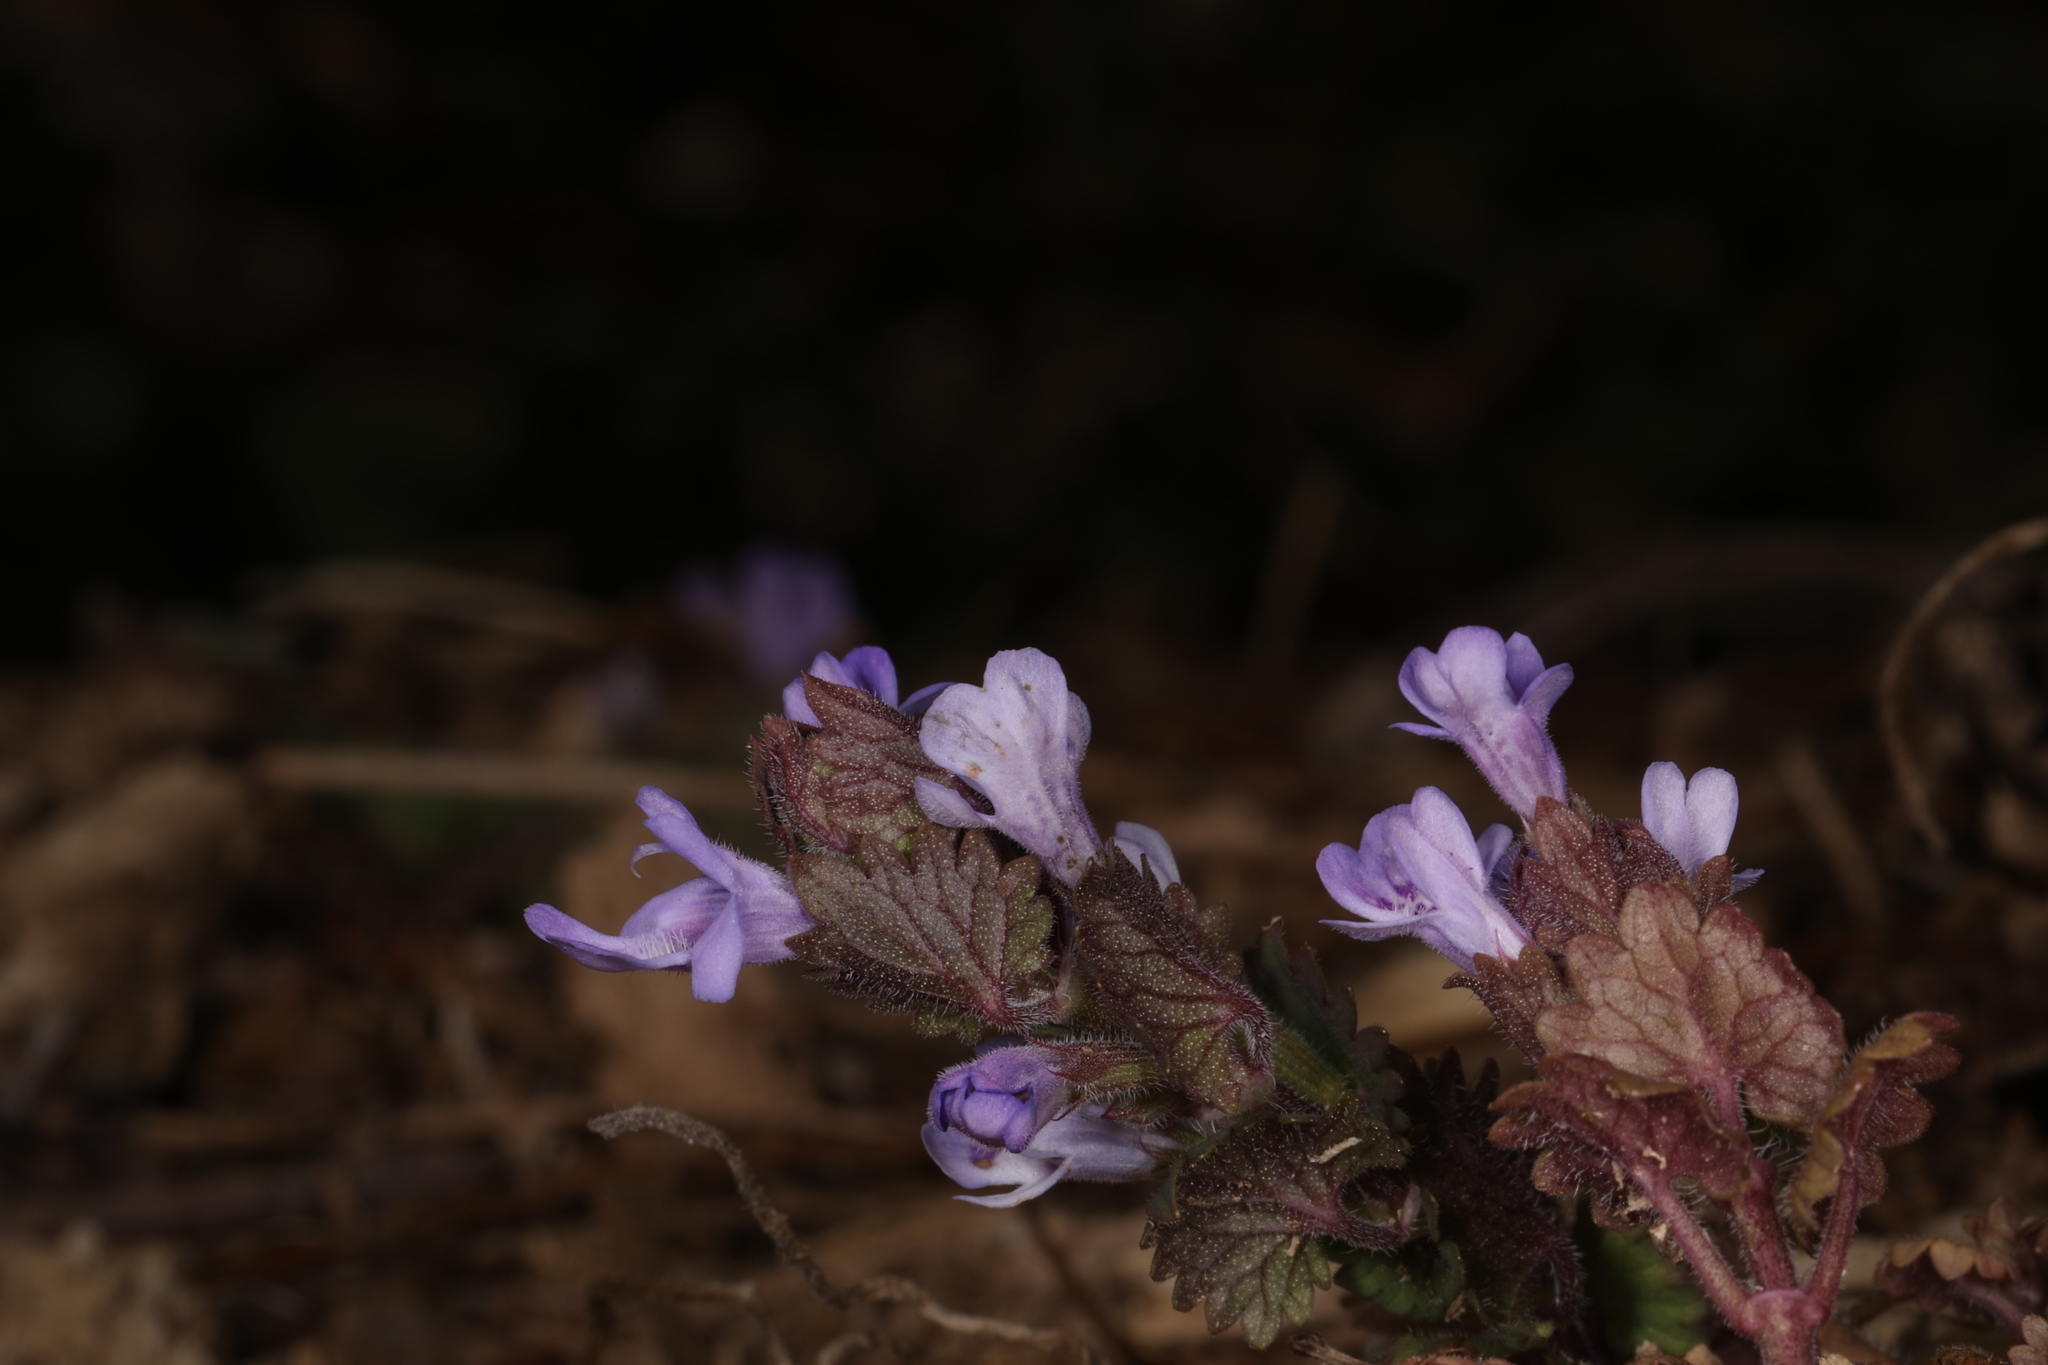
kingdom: Plantae
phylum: Tracheophyta
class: Magnoliopsida
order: Lamiales
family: Lamiaceae
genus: Glechoma
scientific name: Glechoma hederacea
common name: Ground ivy
